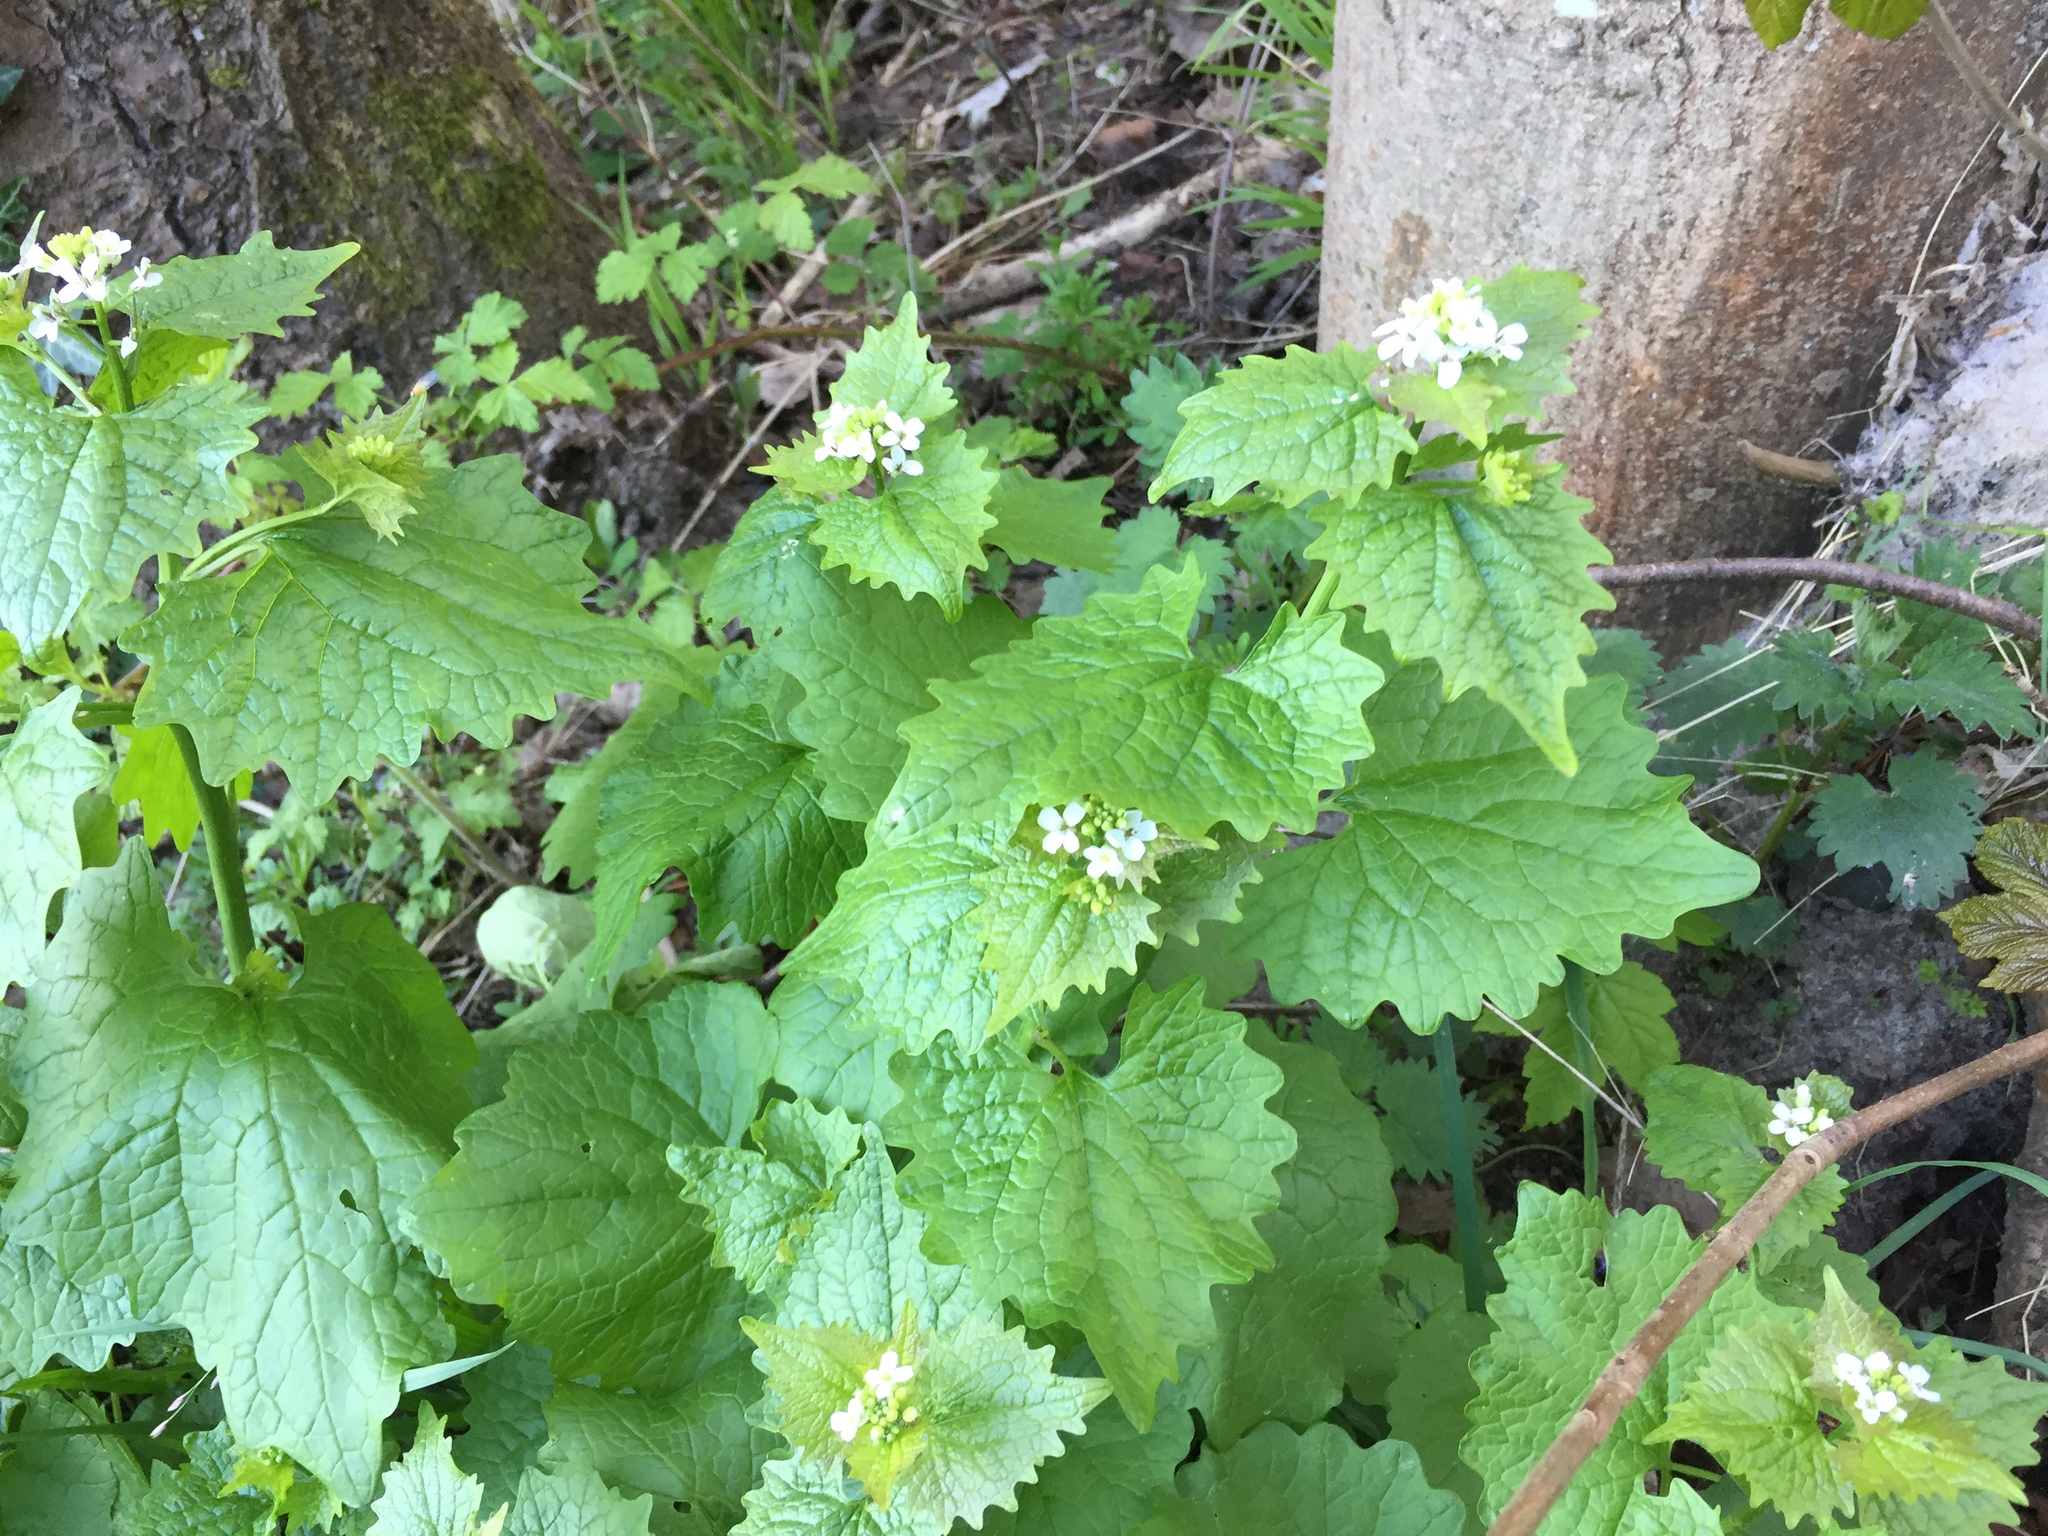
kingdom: Plantae
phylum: Tracheophyta
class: Magnoliopsida
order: Brassicales
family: Brassicaceae
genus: Alliaria
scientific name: Alliaria petiolata
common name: Garlic mustard
